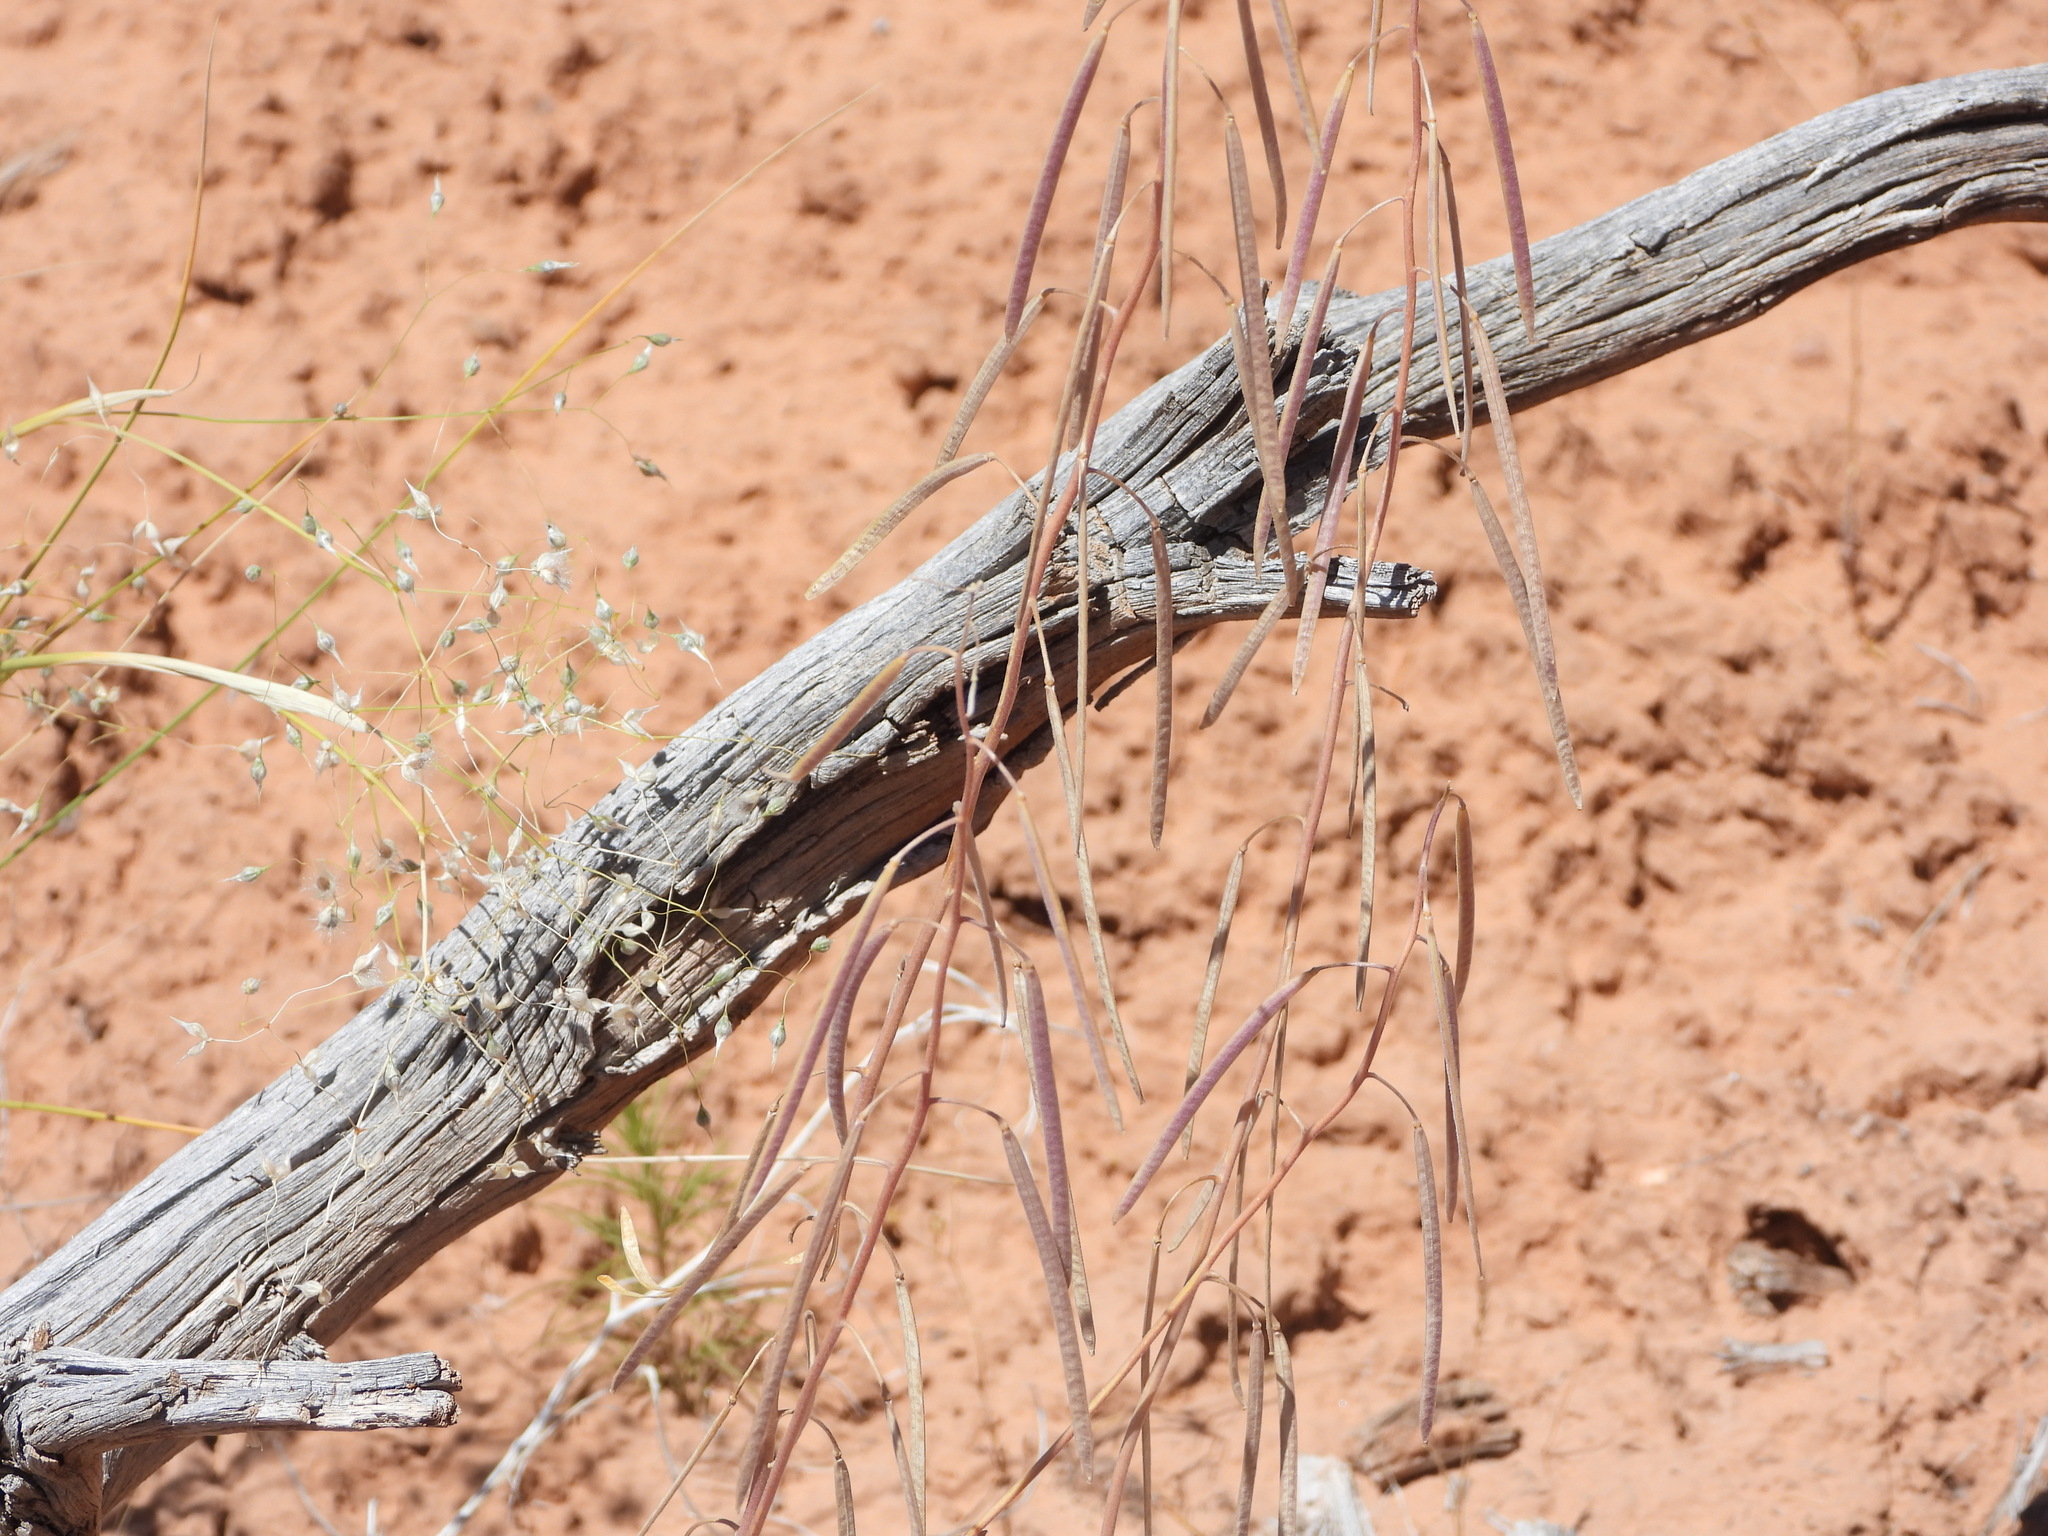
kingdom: Plantae
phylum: Tracheophyta
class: Magnoliopsida
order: Brassicales
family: Brassicaceae
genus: Boechera
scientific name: Boechera formosa
